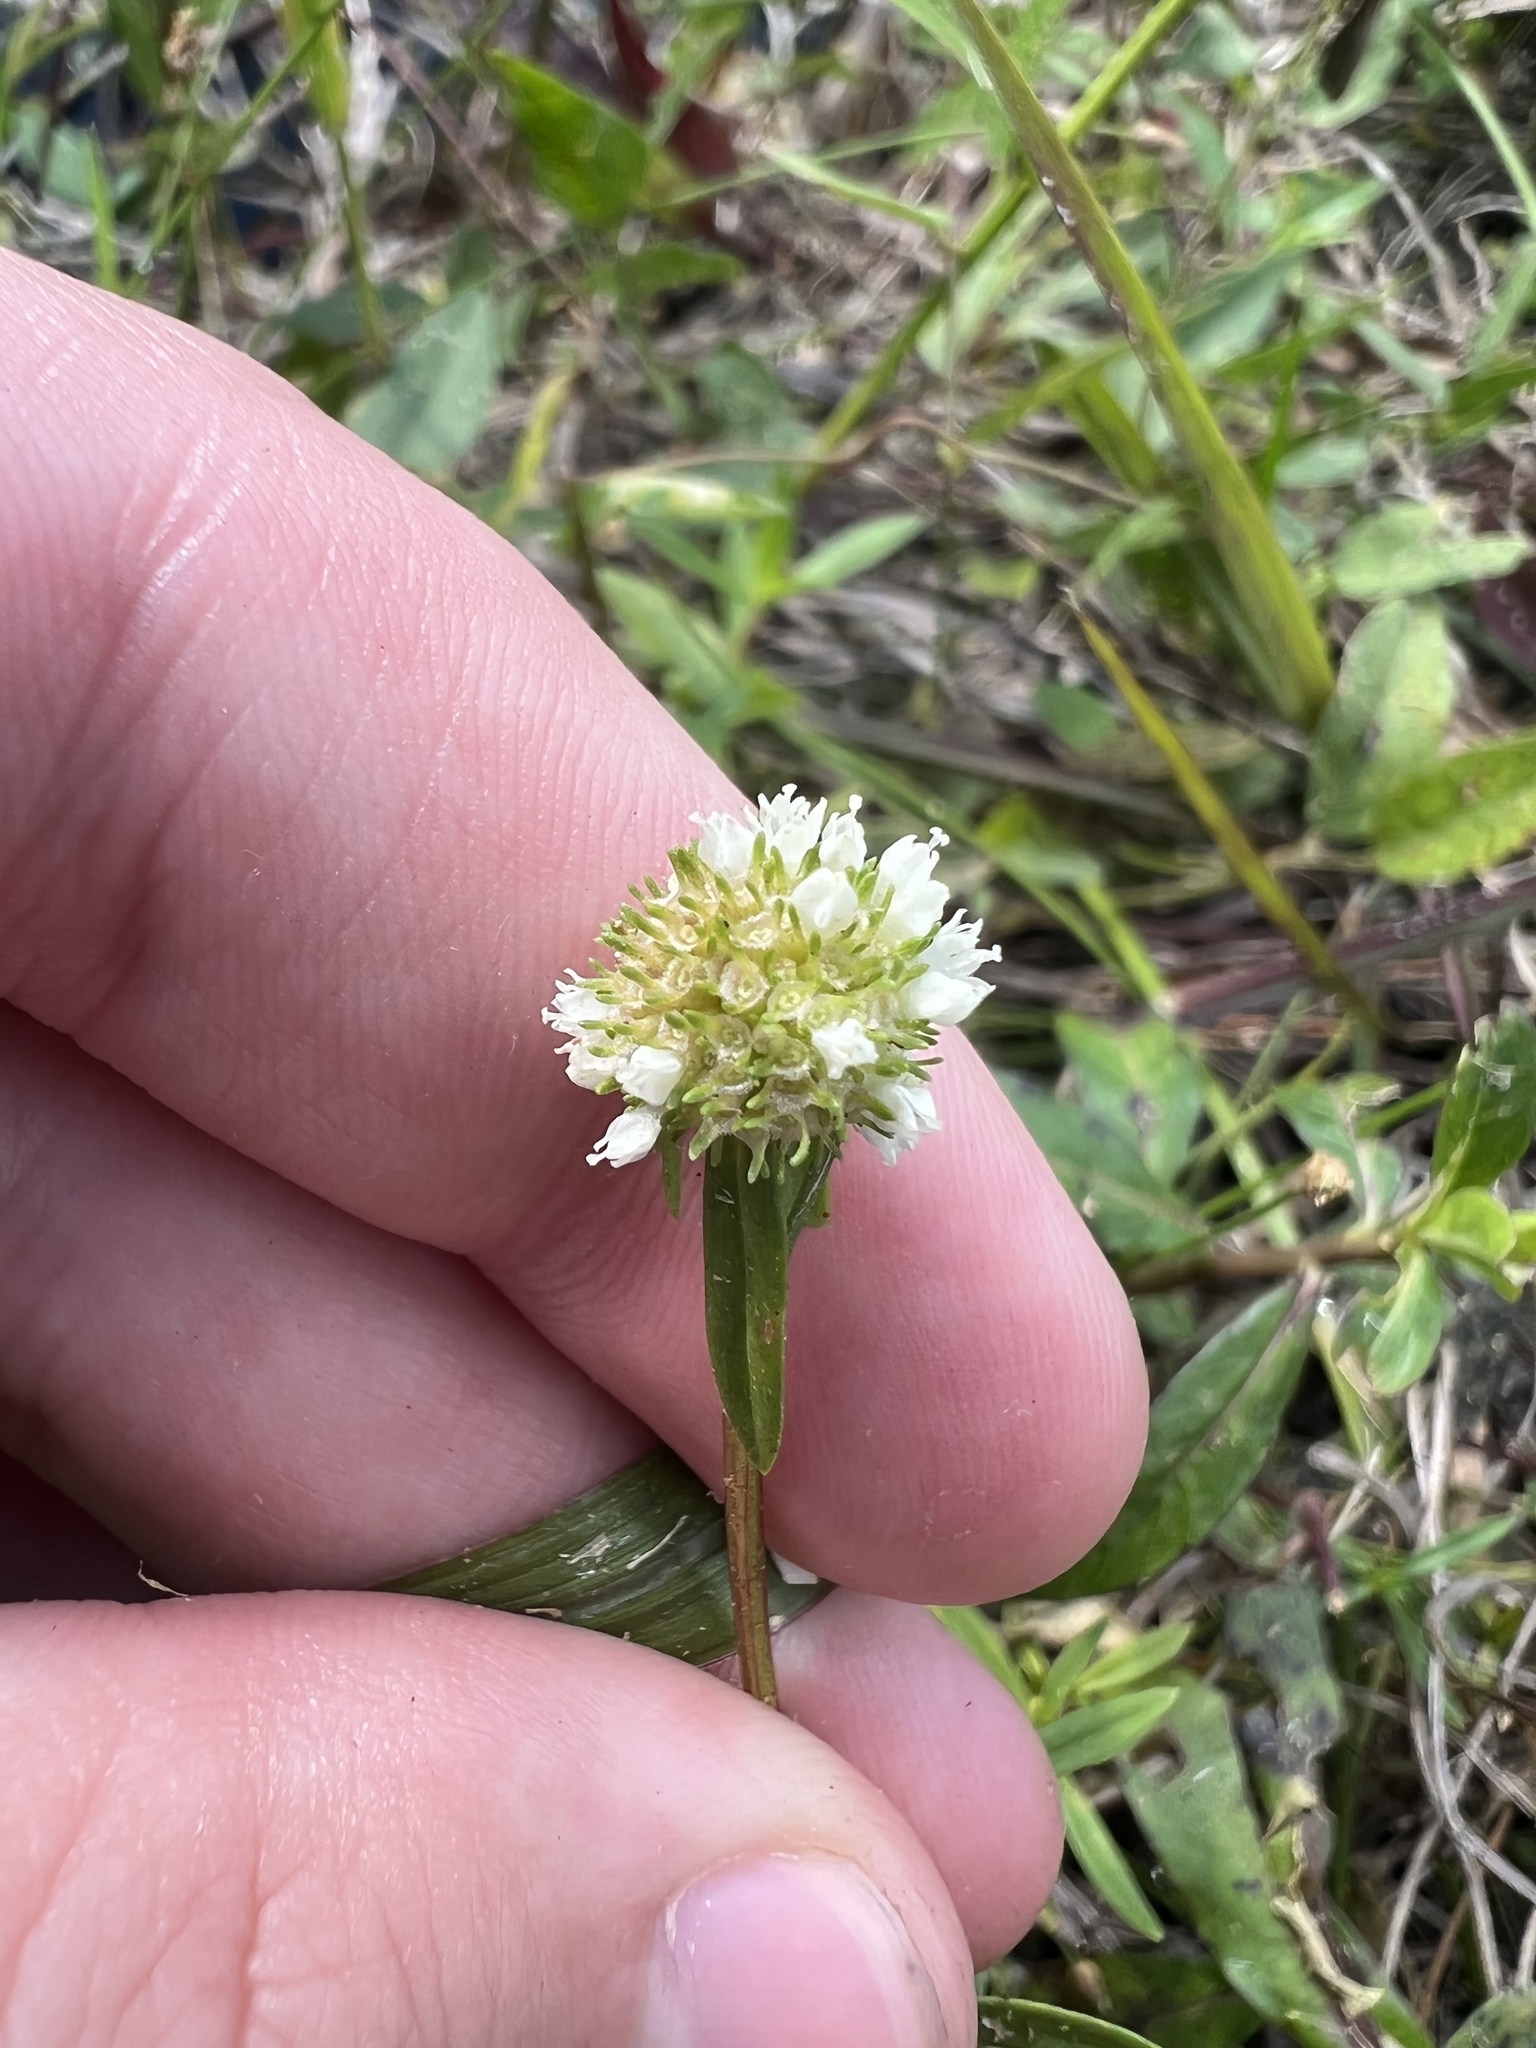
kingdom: Plantae
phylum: Tracheophyta
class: Magnoliopsida
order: Gentianales
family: Rubiaceae
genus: Spermacoce
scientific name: Spermacoce verticillata
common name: Shrubby false buttonweed
